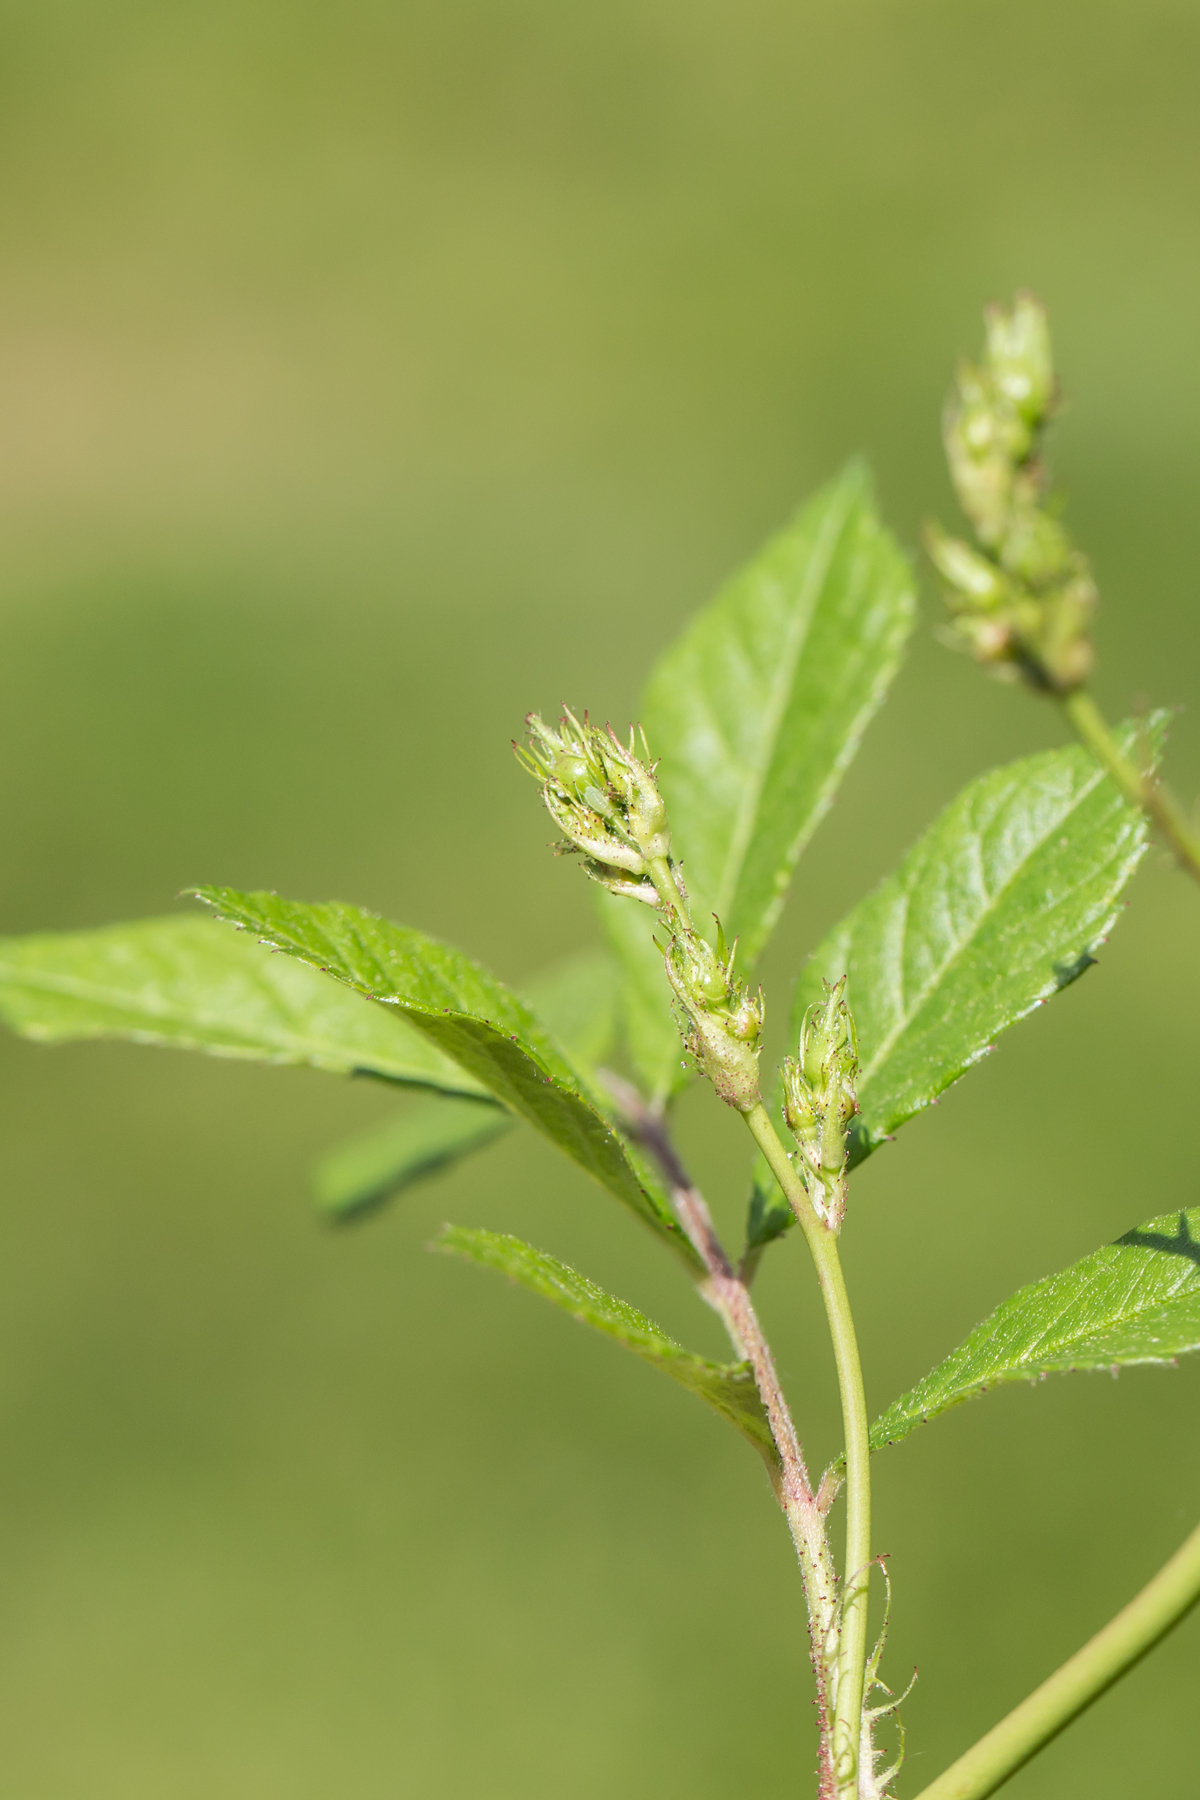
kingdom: Plantae
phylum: Tracheophyta
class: Magnoliopsida
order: Rosales
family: Rosaceae
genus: Rosa
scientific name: Rosa multiflora
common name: Multiflora rose
